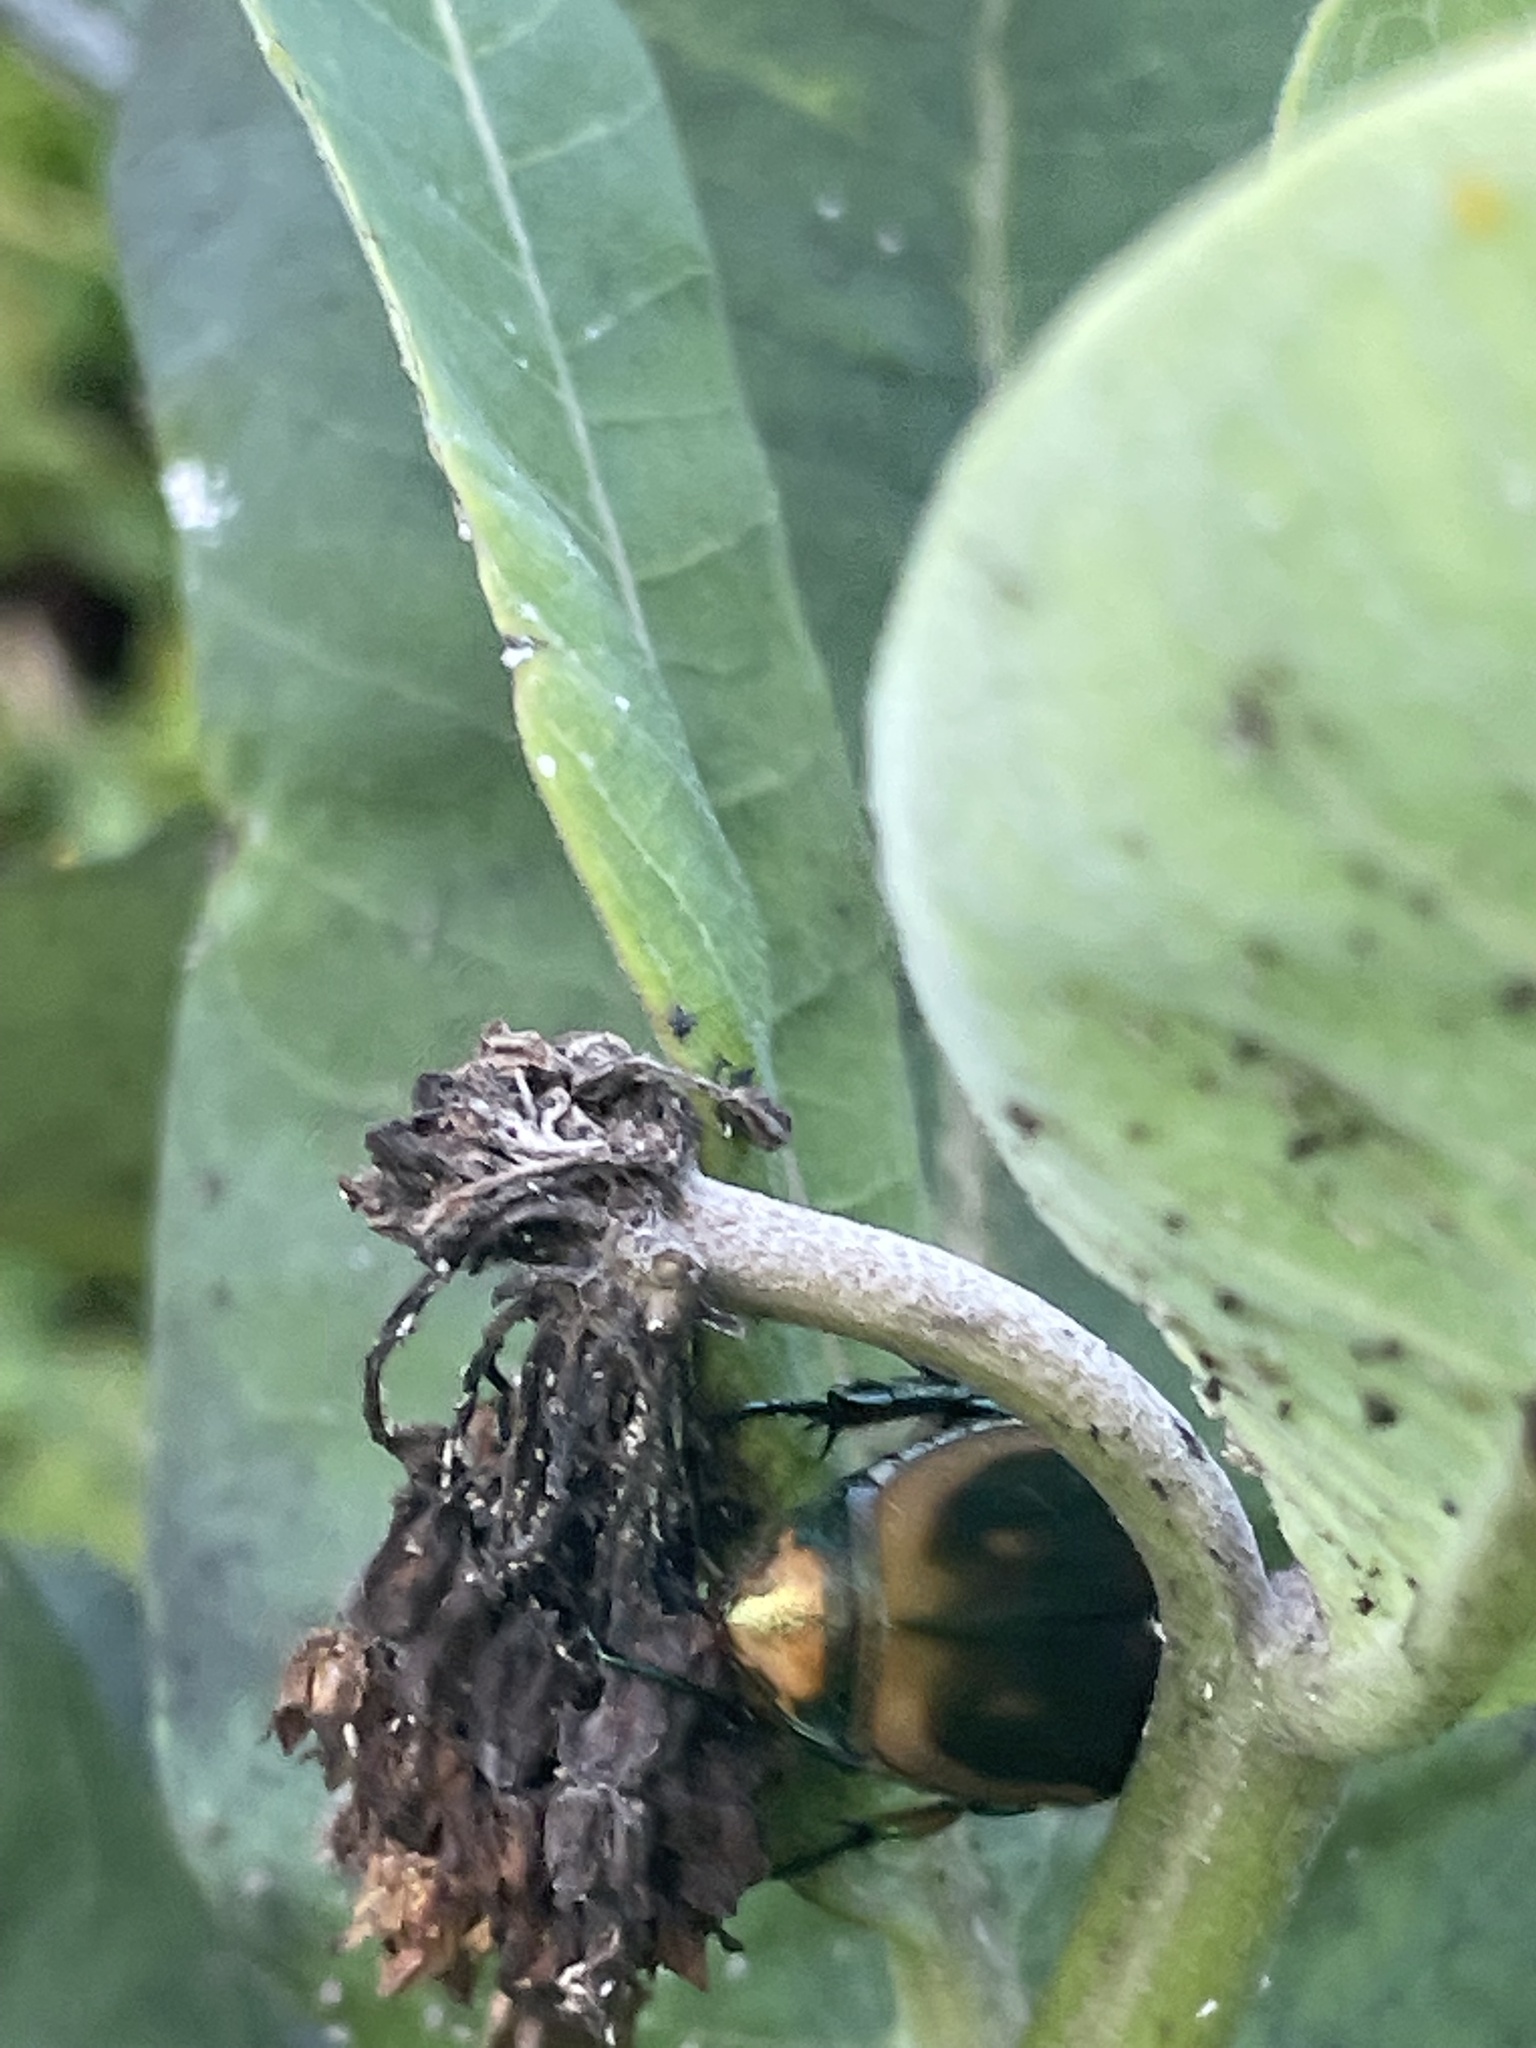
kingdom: Animalia
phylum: Arthropoda
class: Insecta
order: Coleoptera
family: Scarabaeidae
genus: Cotinis
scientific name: Cotinis nitida
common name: Common green june beetle
